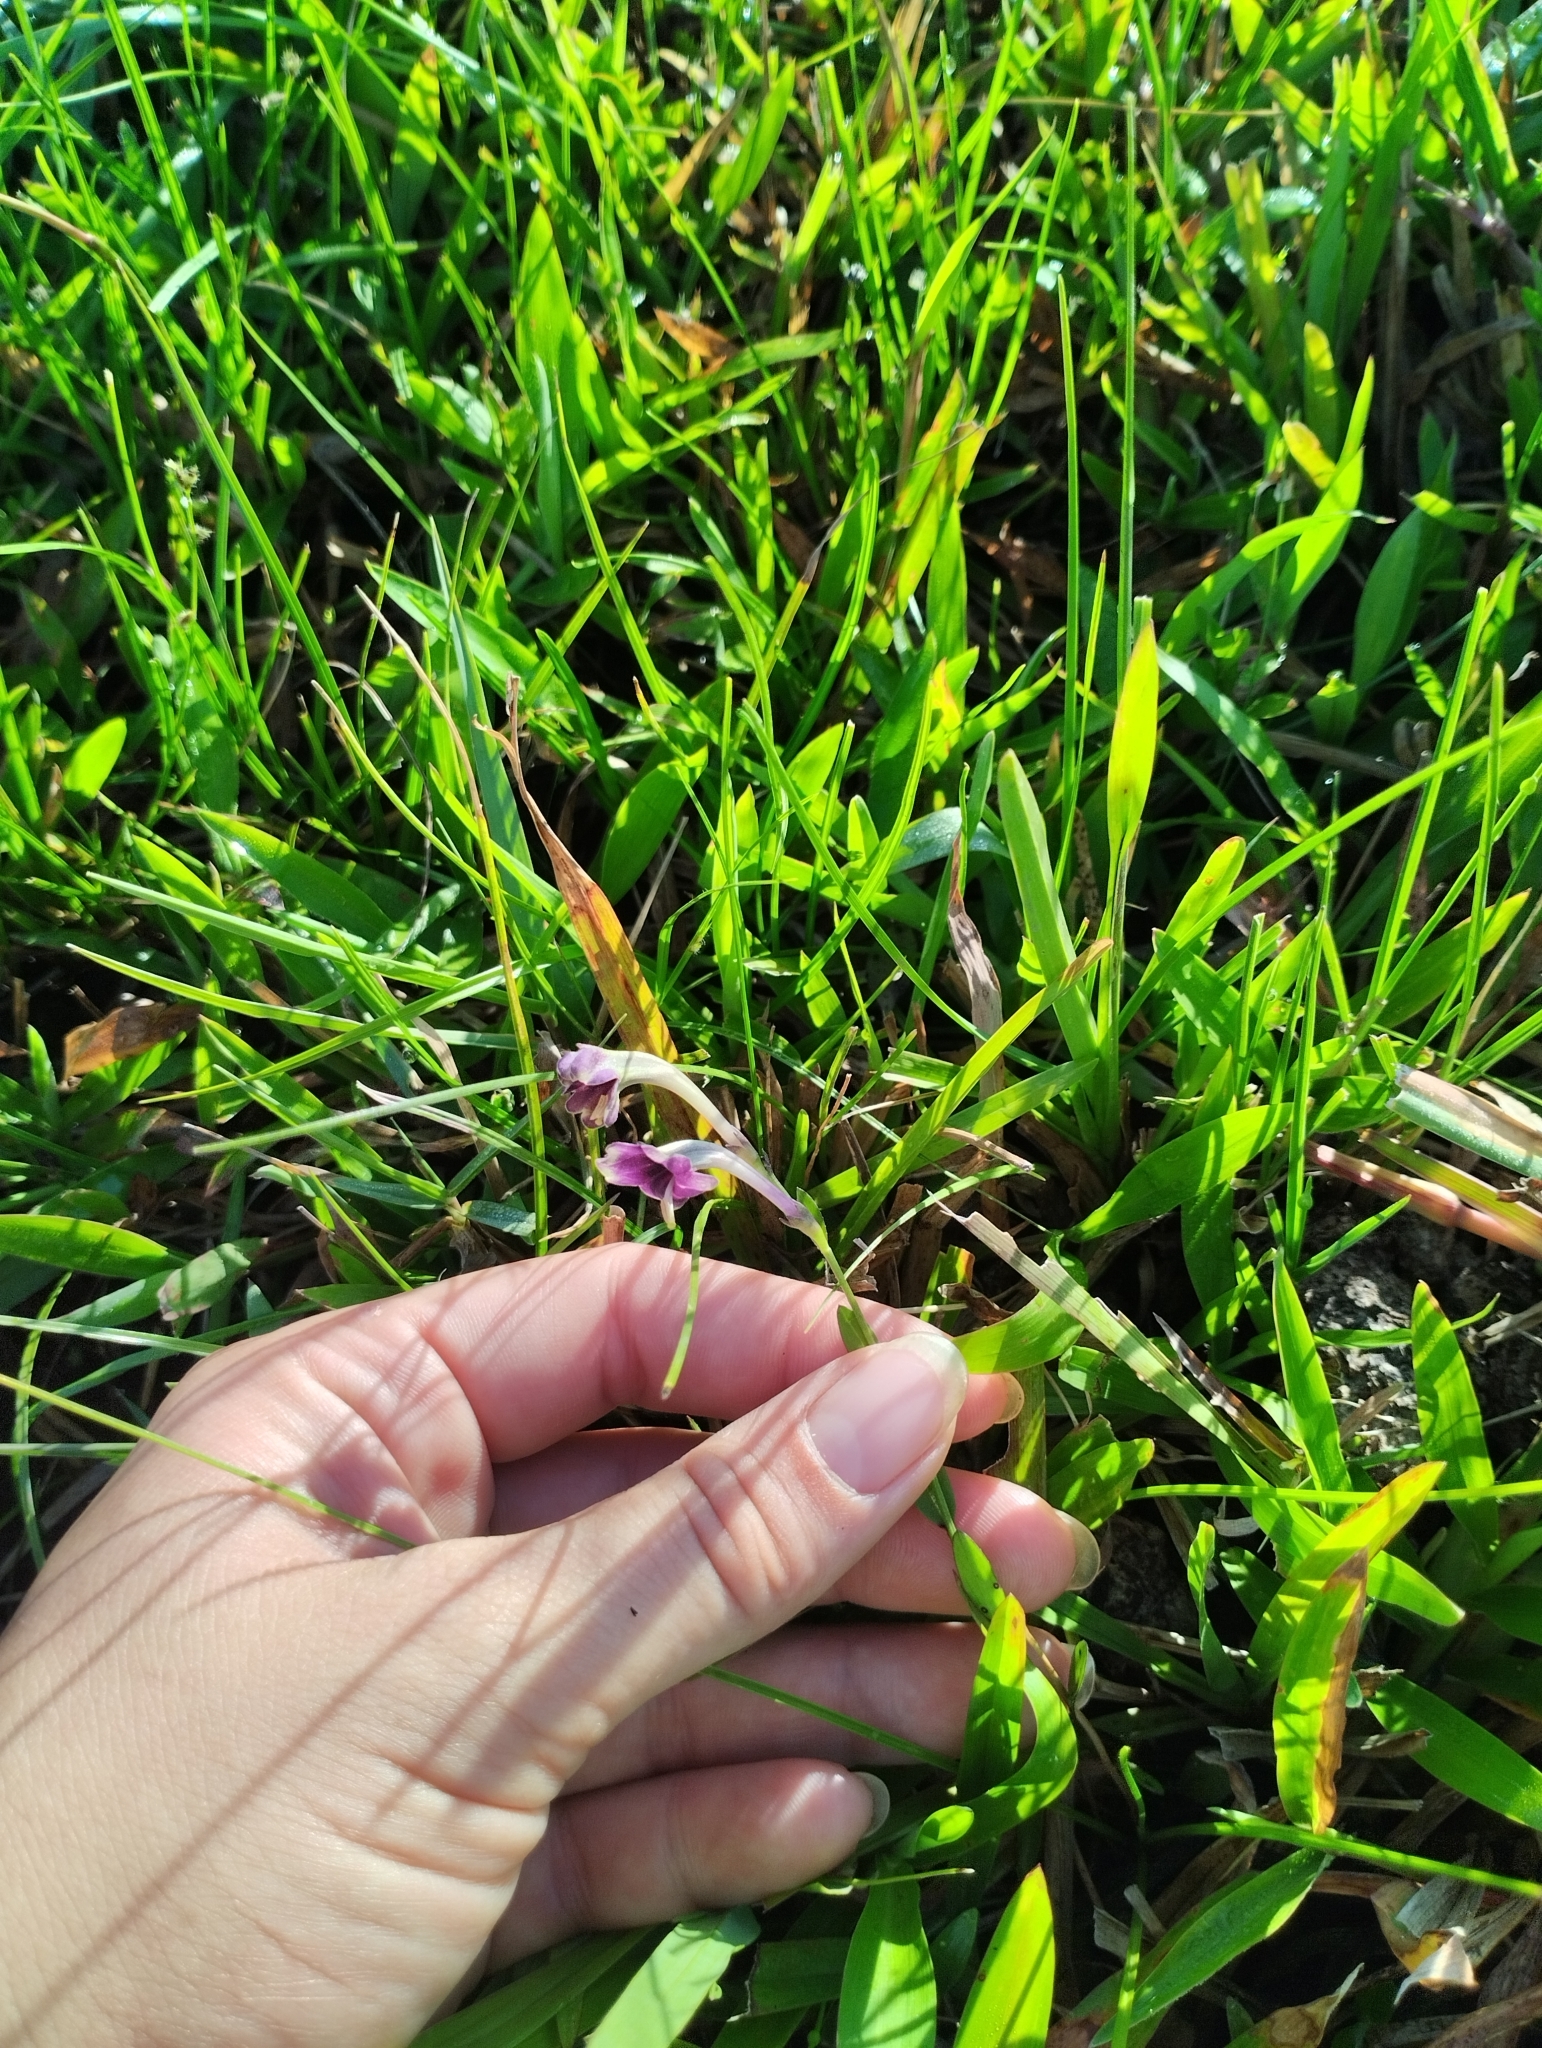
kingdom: Plantae
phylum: Tracheophyta
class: Magnoliopsida
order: Solanales
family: Solanaceae
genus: Schwenckia
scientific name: Schwenckia curviflora
